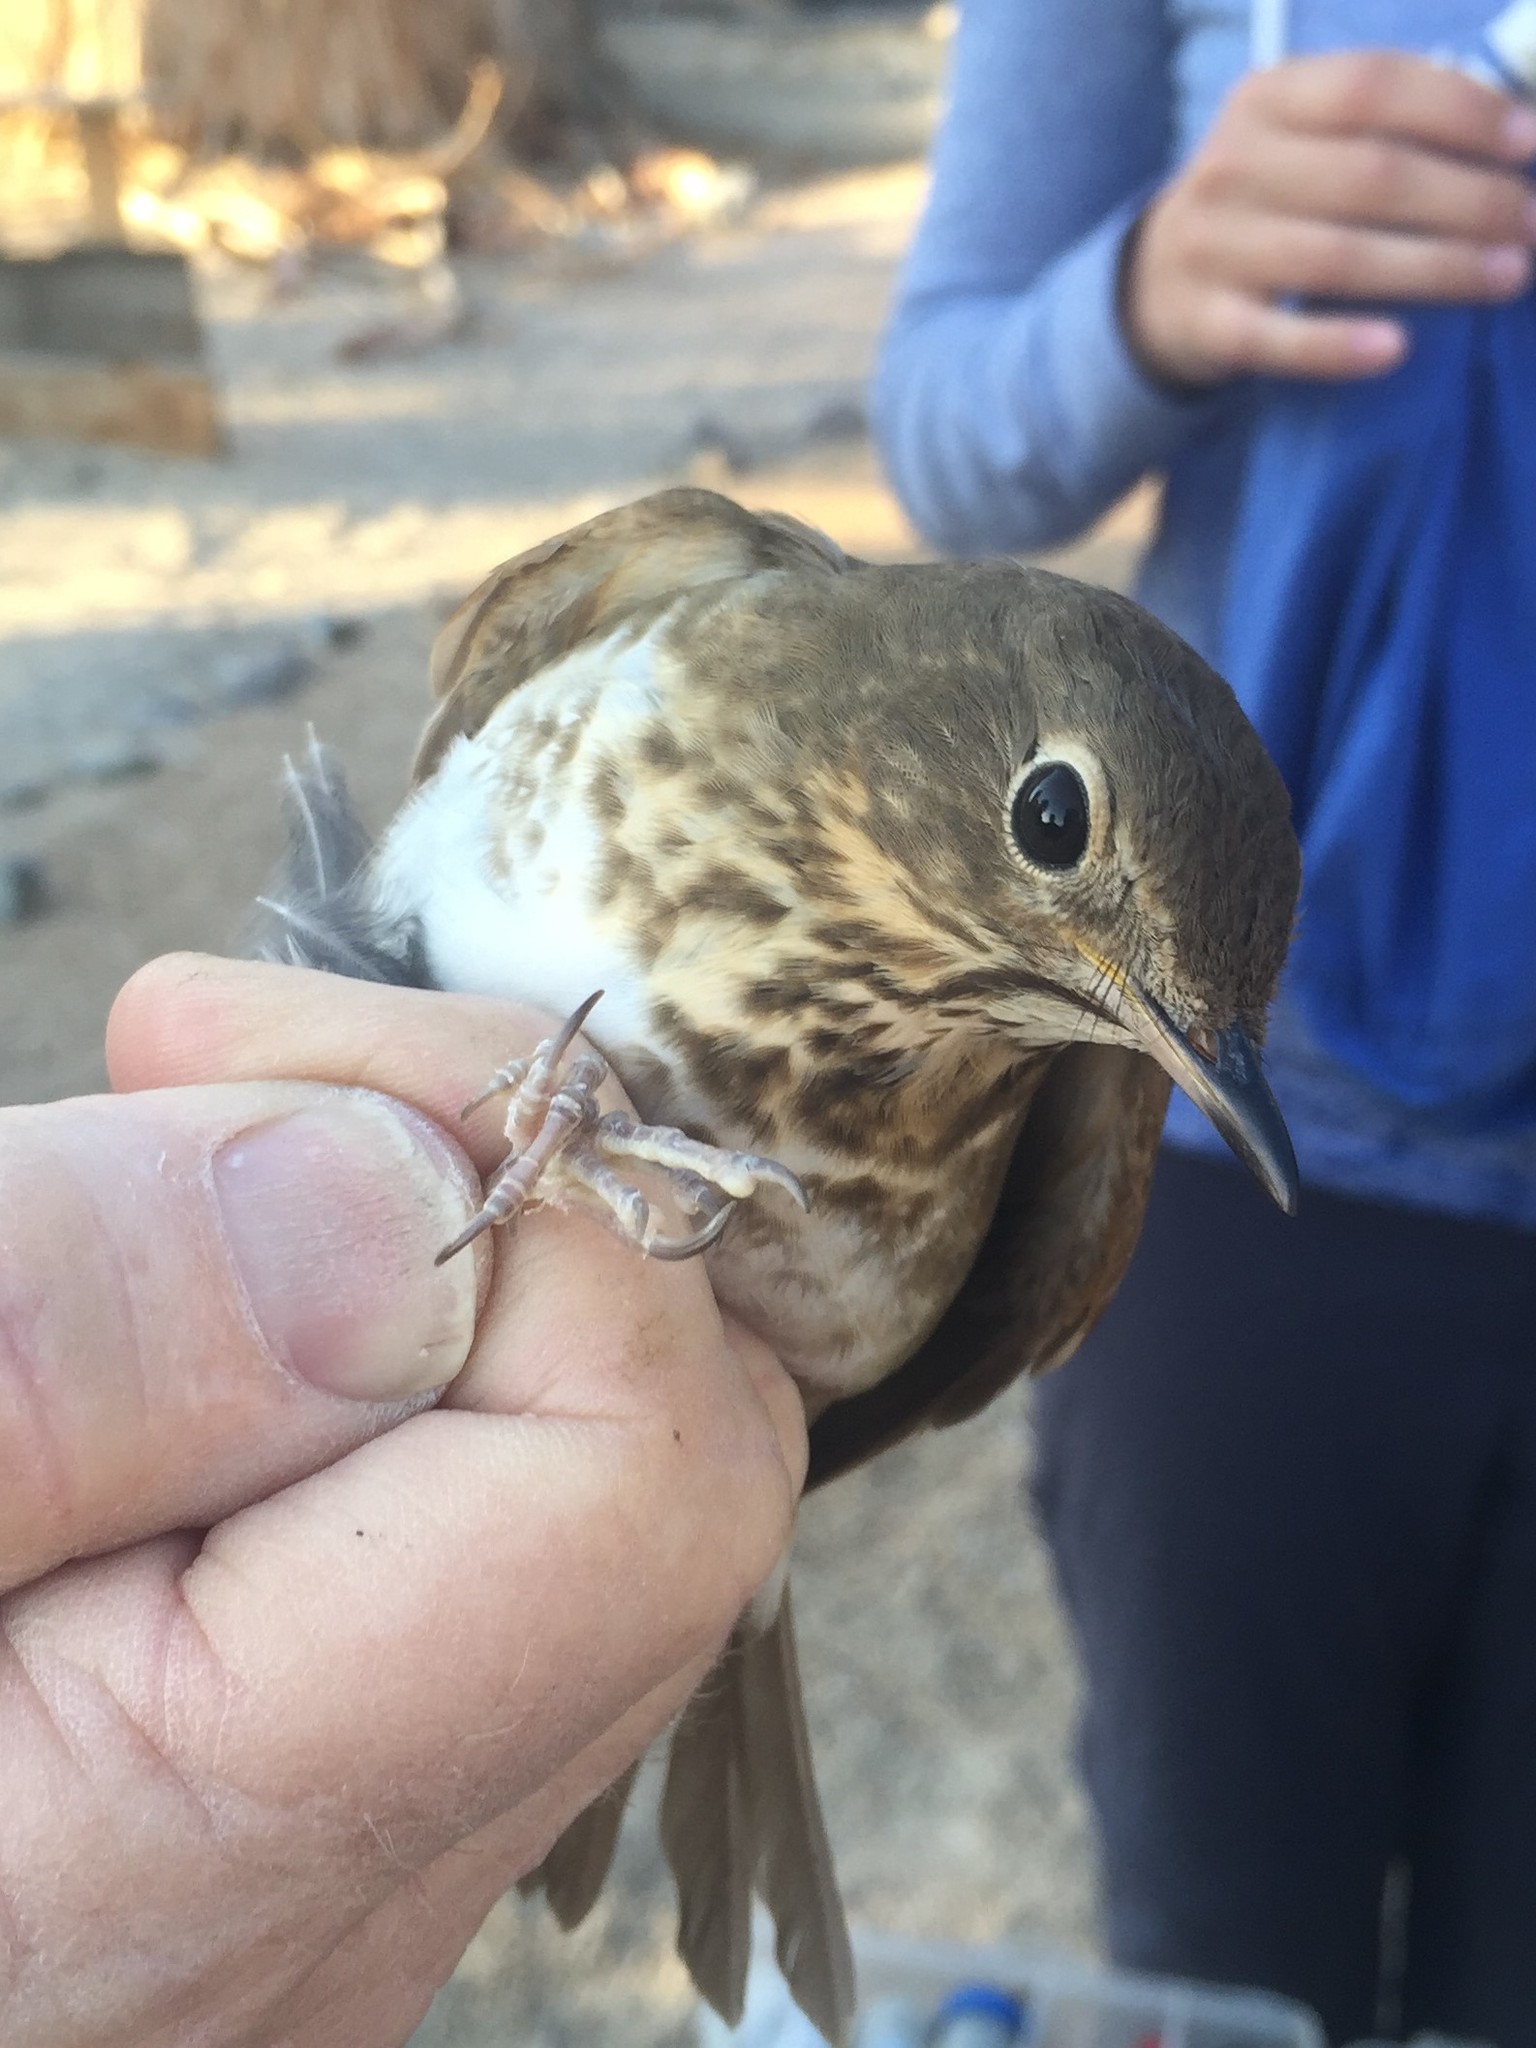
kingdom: Animalia
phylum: Chordata
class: Aves
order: Passeriformes
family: Turdidae
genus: Catharus
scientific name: Catharus ustulatus
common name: Swainson's thrush
